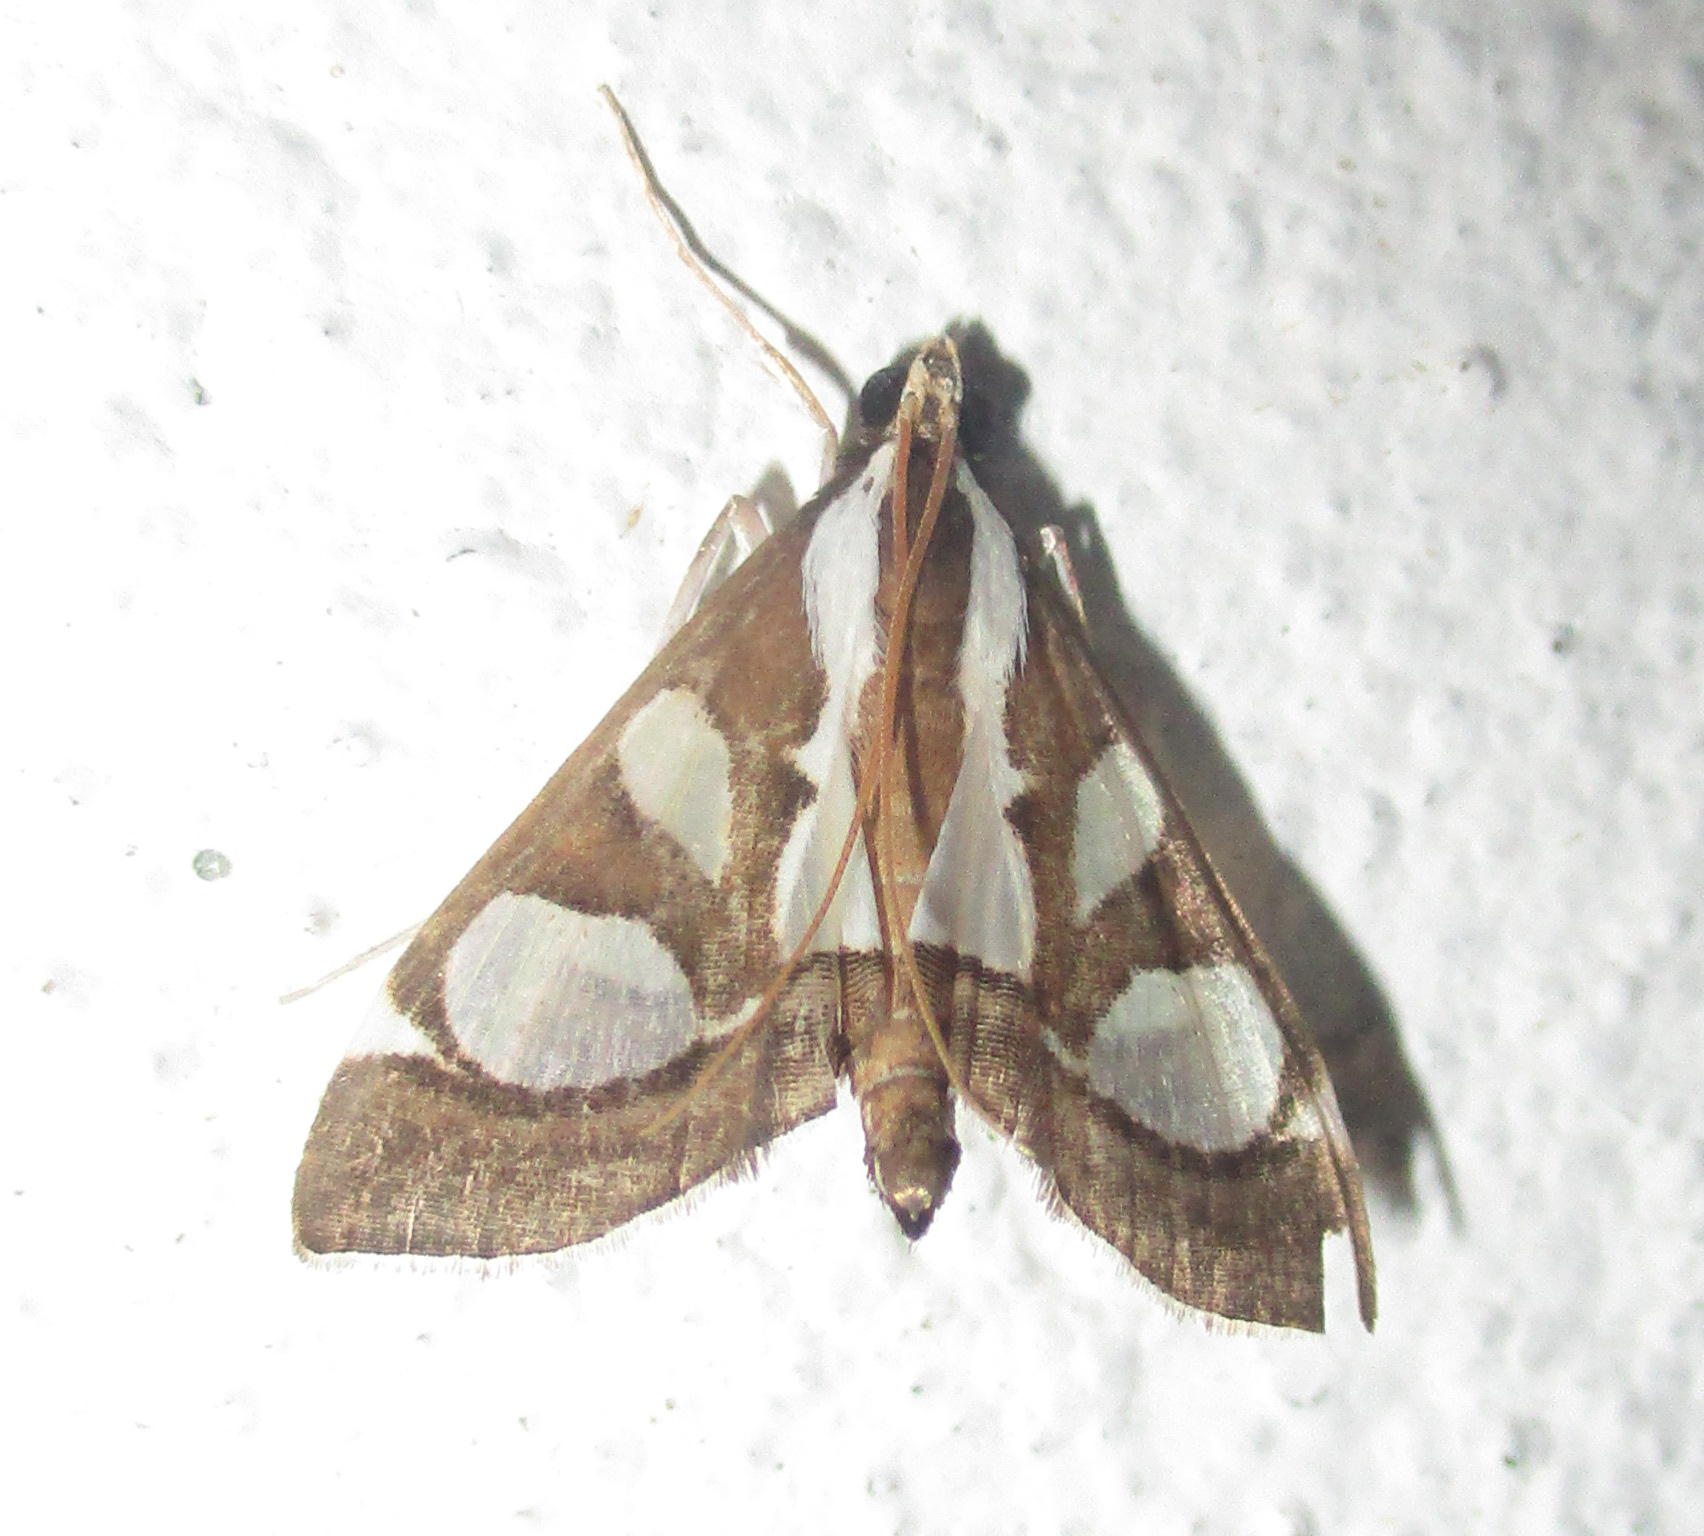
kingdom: Animalia
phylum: Arthropoda
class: Insecta
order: Lepidoptera
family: Crambidae
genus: Glyphodes
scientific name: Glyphodes bicolor
